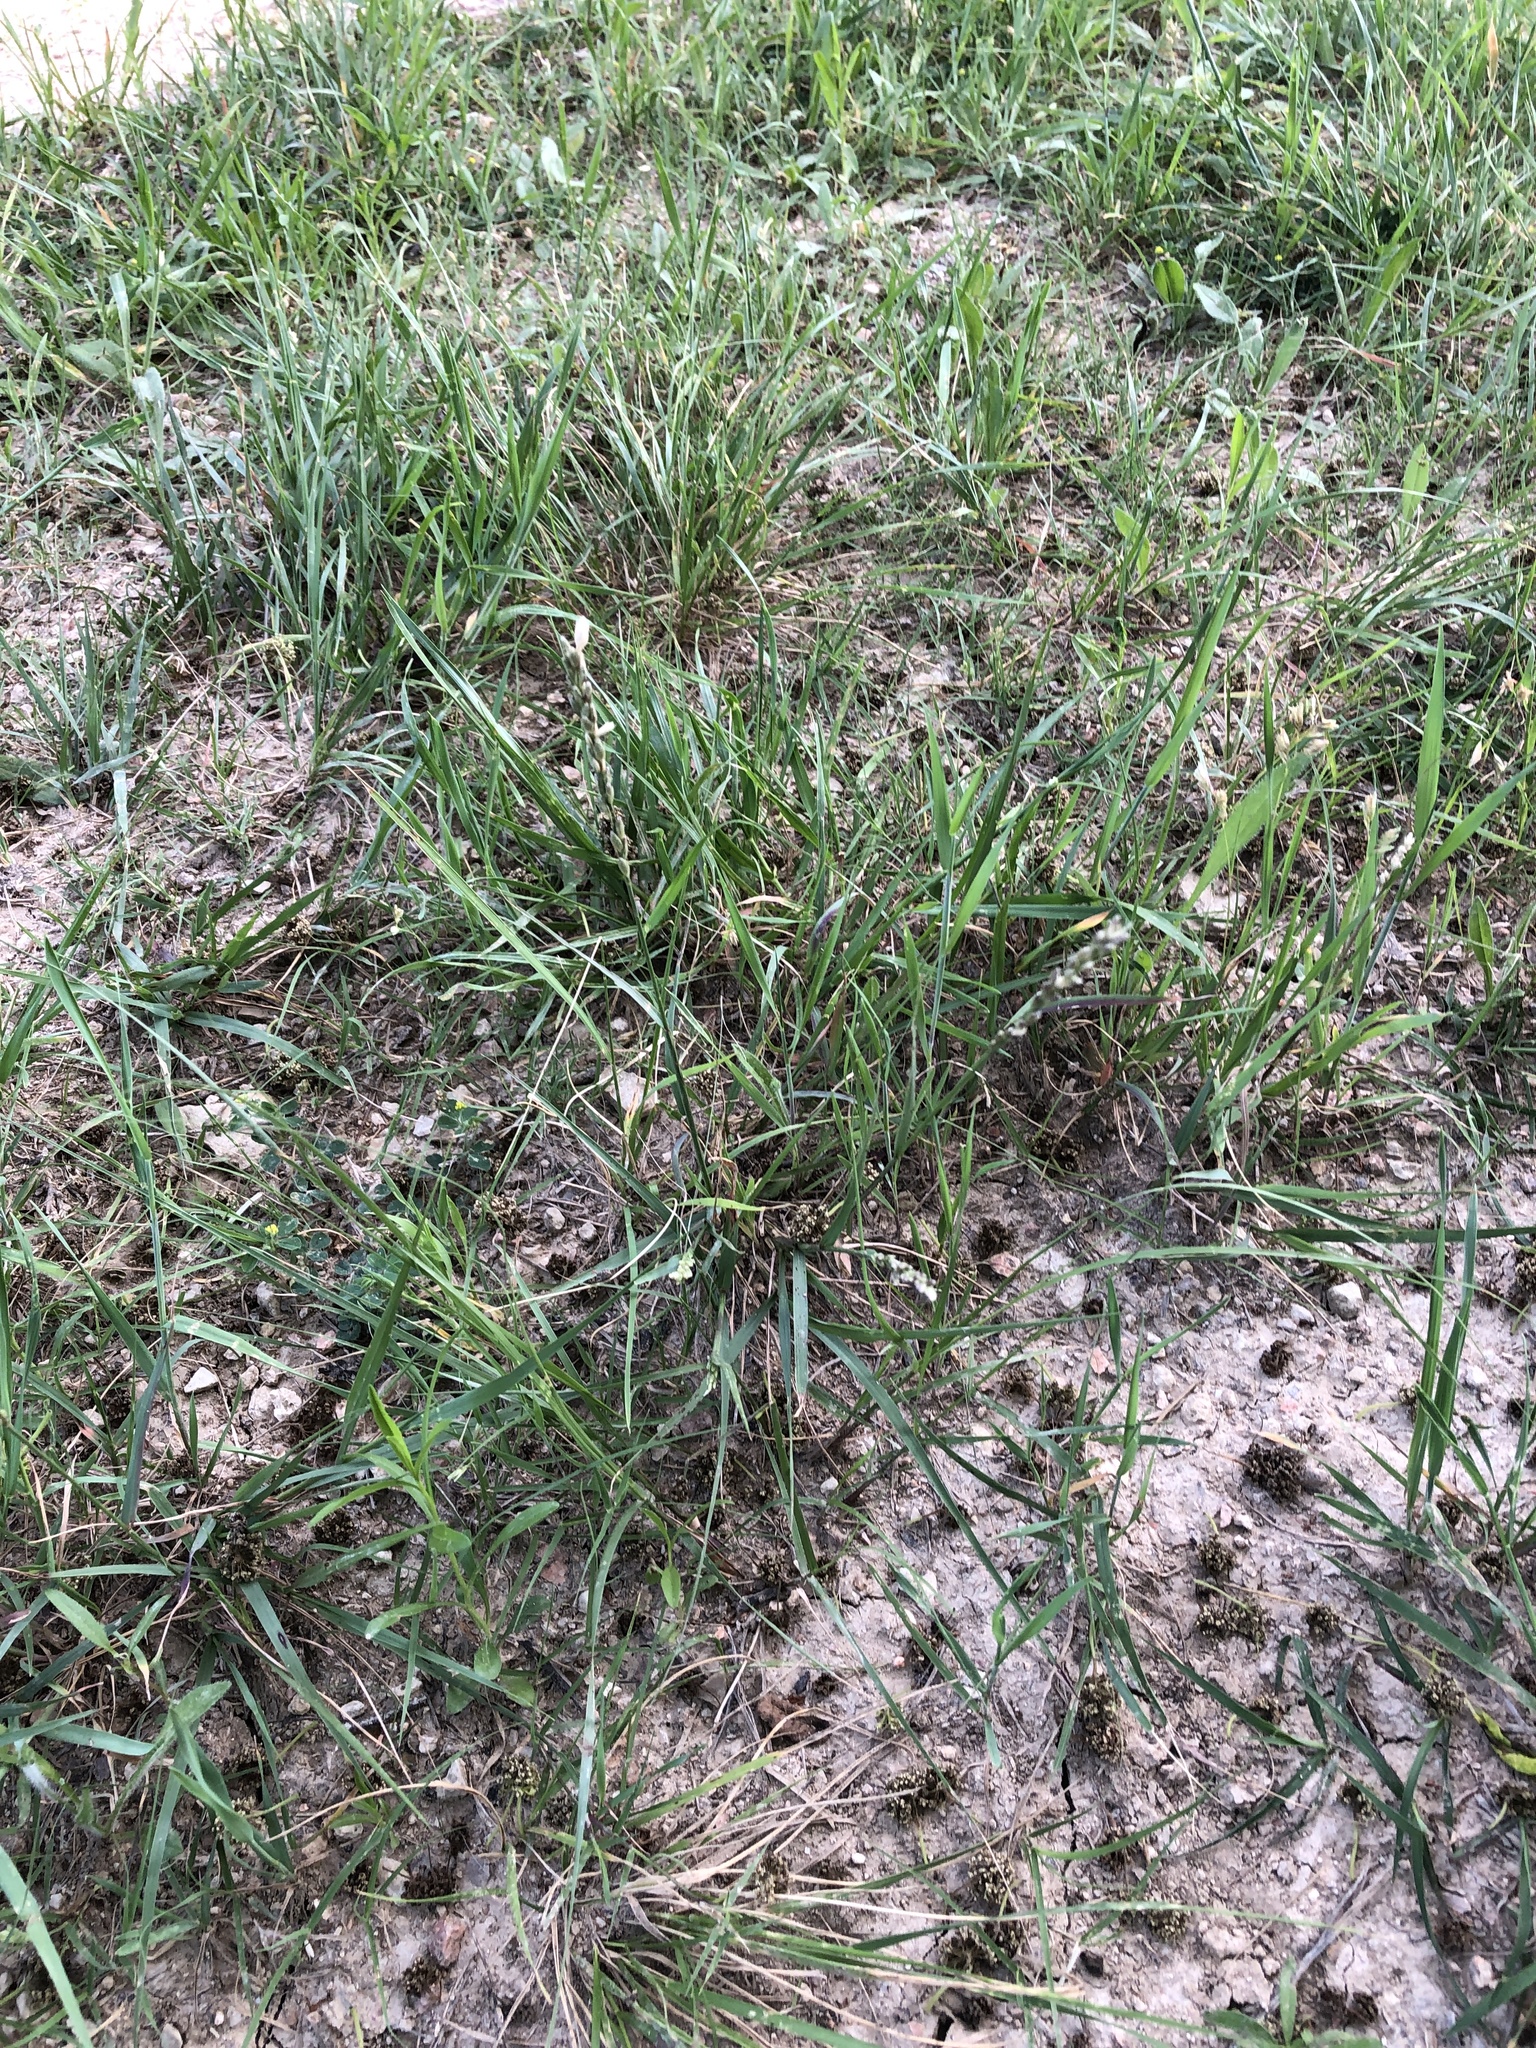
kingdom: Plantae
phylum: Tracheophyta
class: Liliopsida
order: Poales
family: Poaceae
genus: Tridens
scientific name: Tridens albescens
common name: White tridens
